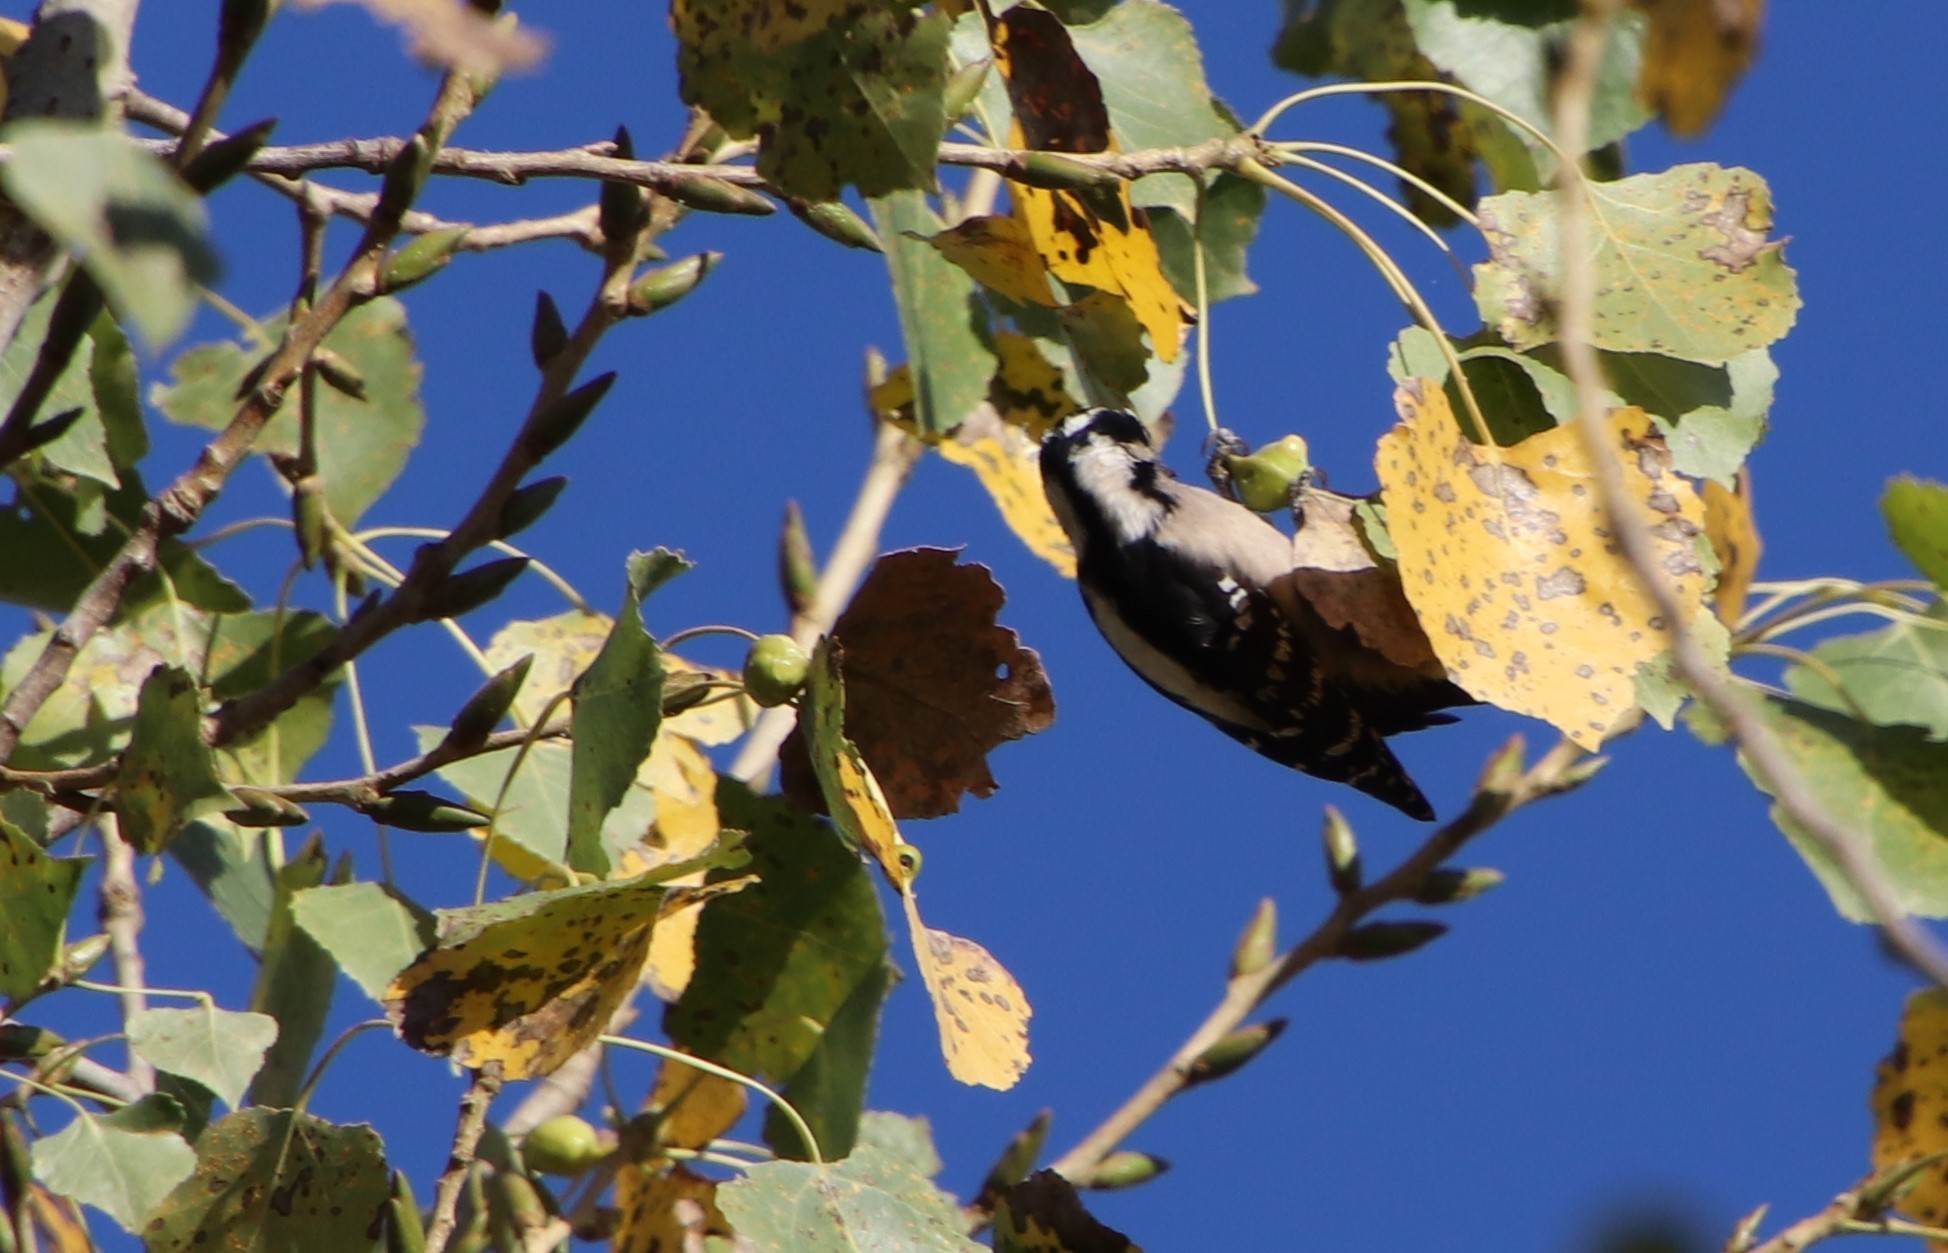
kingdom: Animalia
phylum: Arthropoda
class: Insecta
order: Hemiptera
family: Aphididae
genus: Pemphigus
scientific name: Pemphigus obesinymphae
